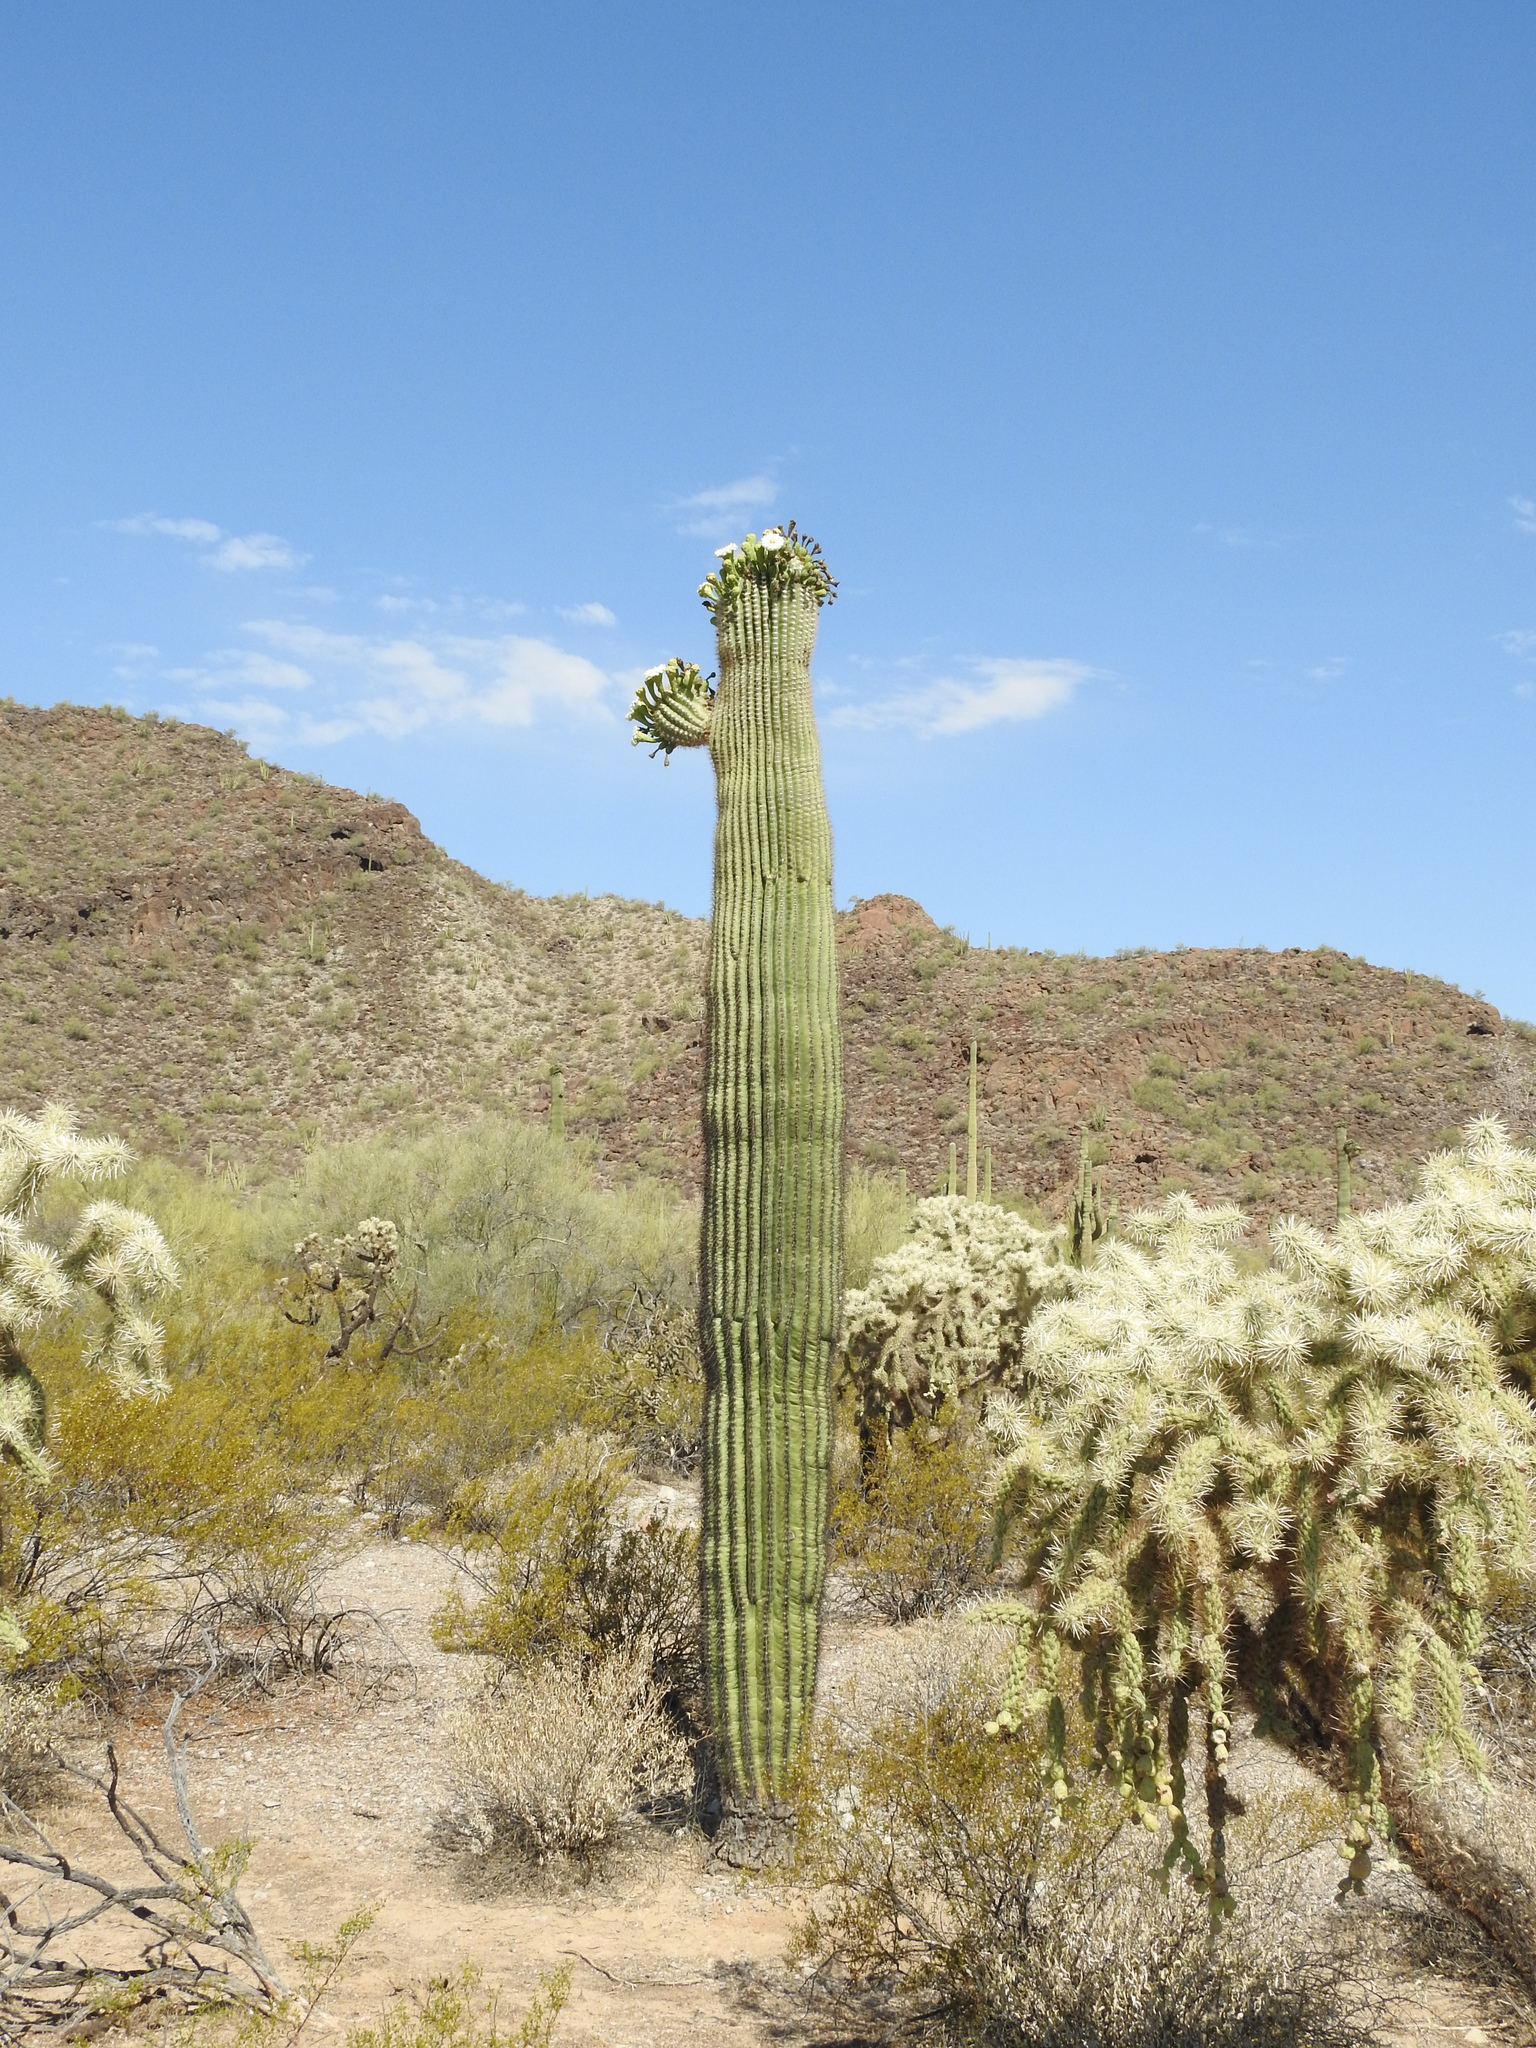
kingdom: Plantae
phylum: Tracheophyta
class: Magnoliopsida
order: Caryophyllales
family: Cactaceae
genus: Carnegiea
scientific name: Carnegiea gigantea
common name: Saguaro
